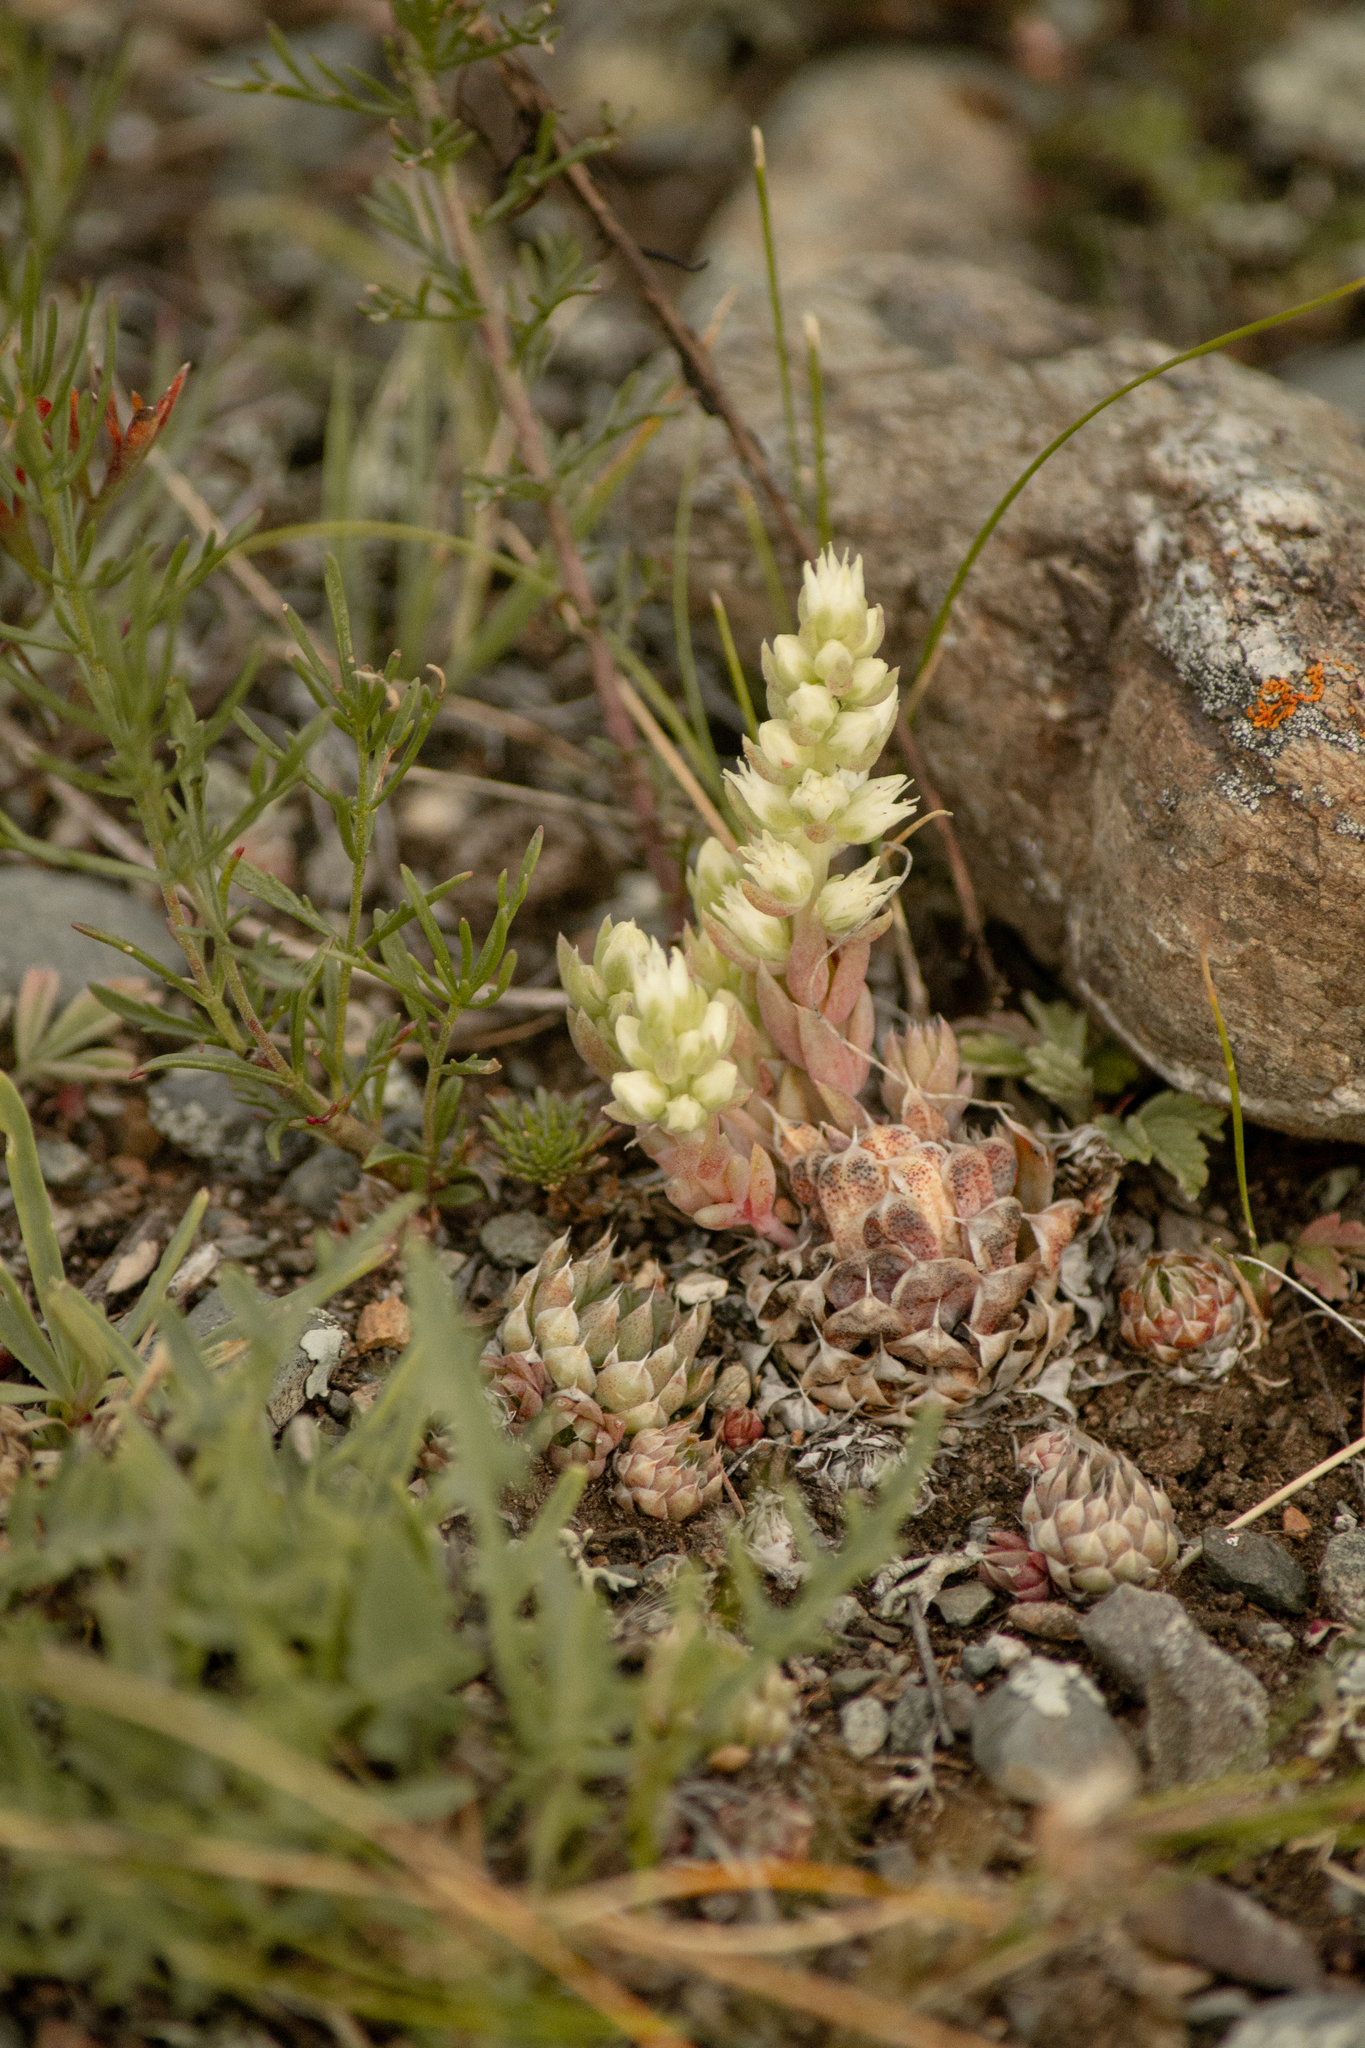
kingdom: Plantae
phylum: Tracheophyta
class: Magnoliopsida
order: Saxifragales
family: Crassulaceae
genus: Orostachys
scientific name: Orostachys spinosa
